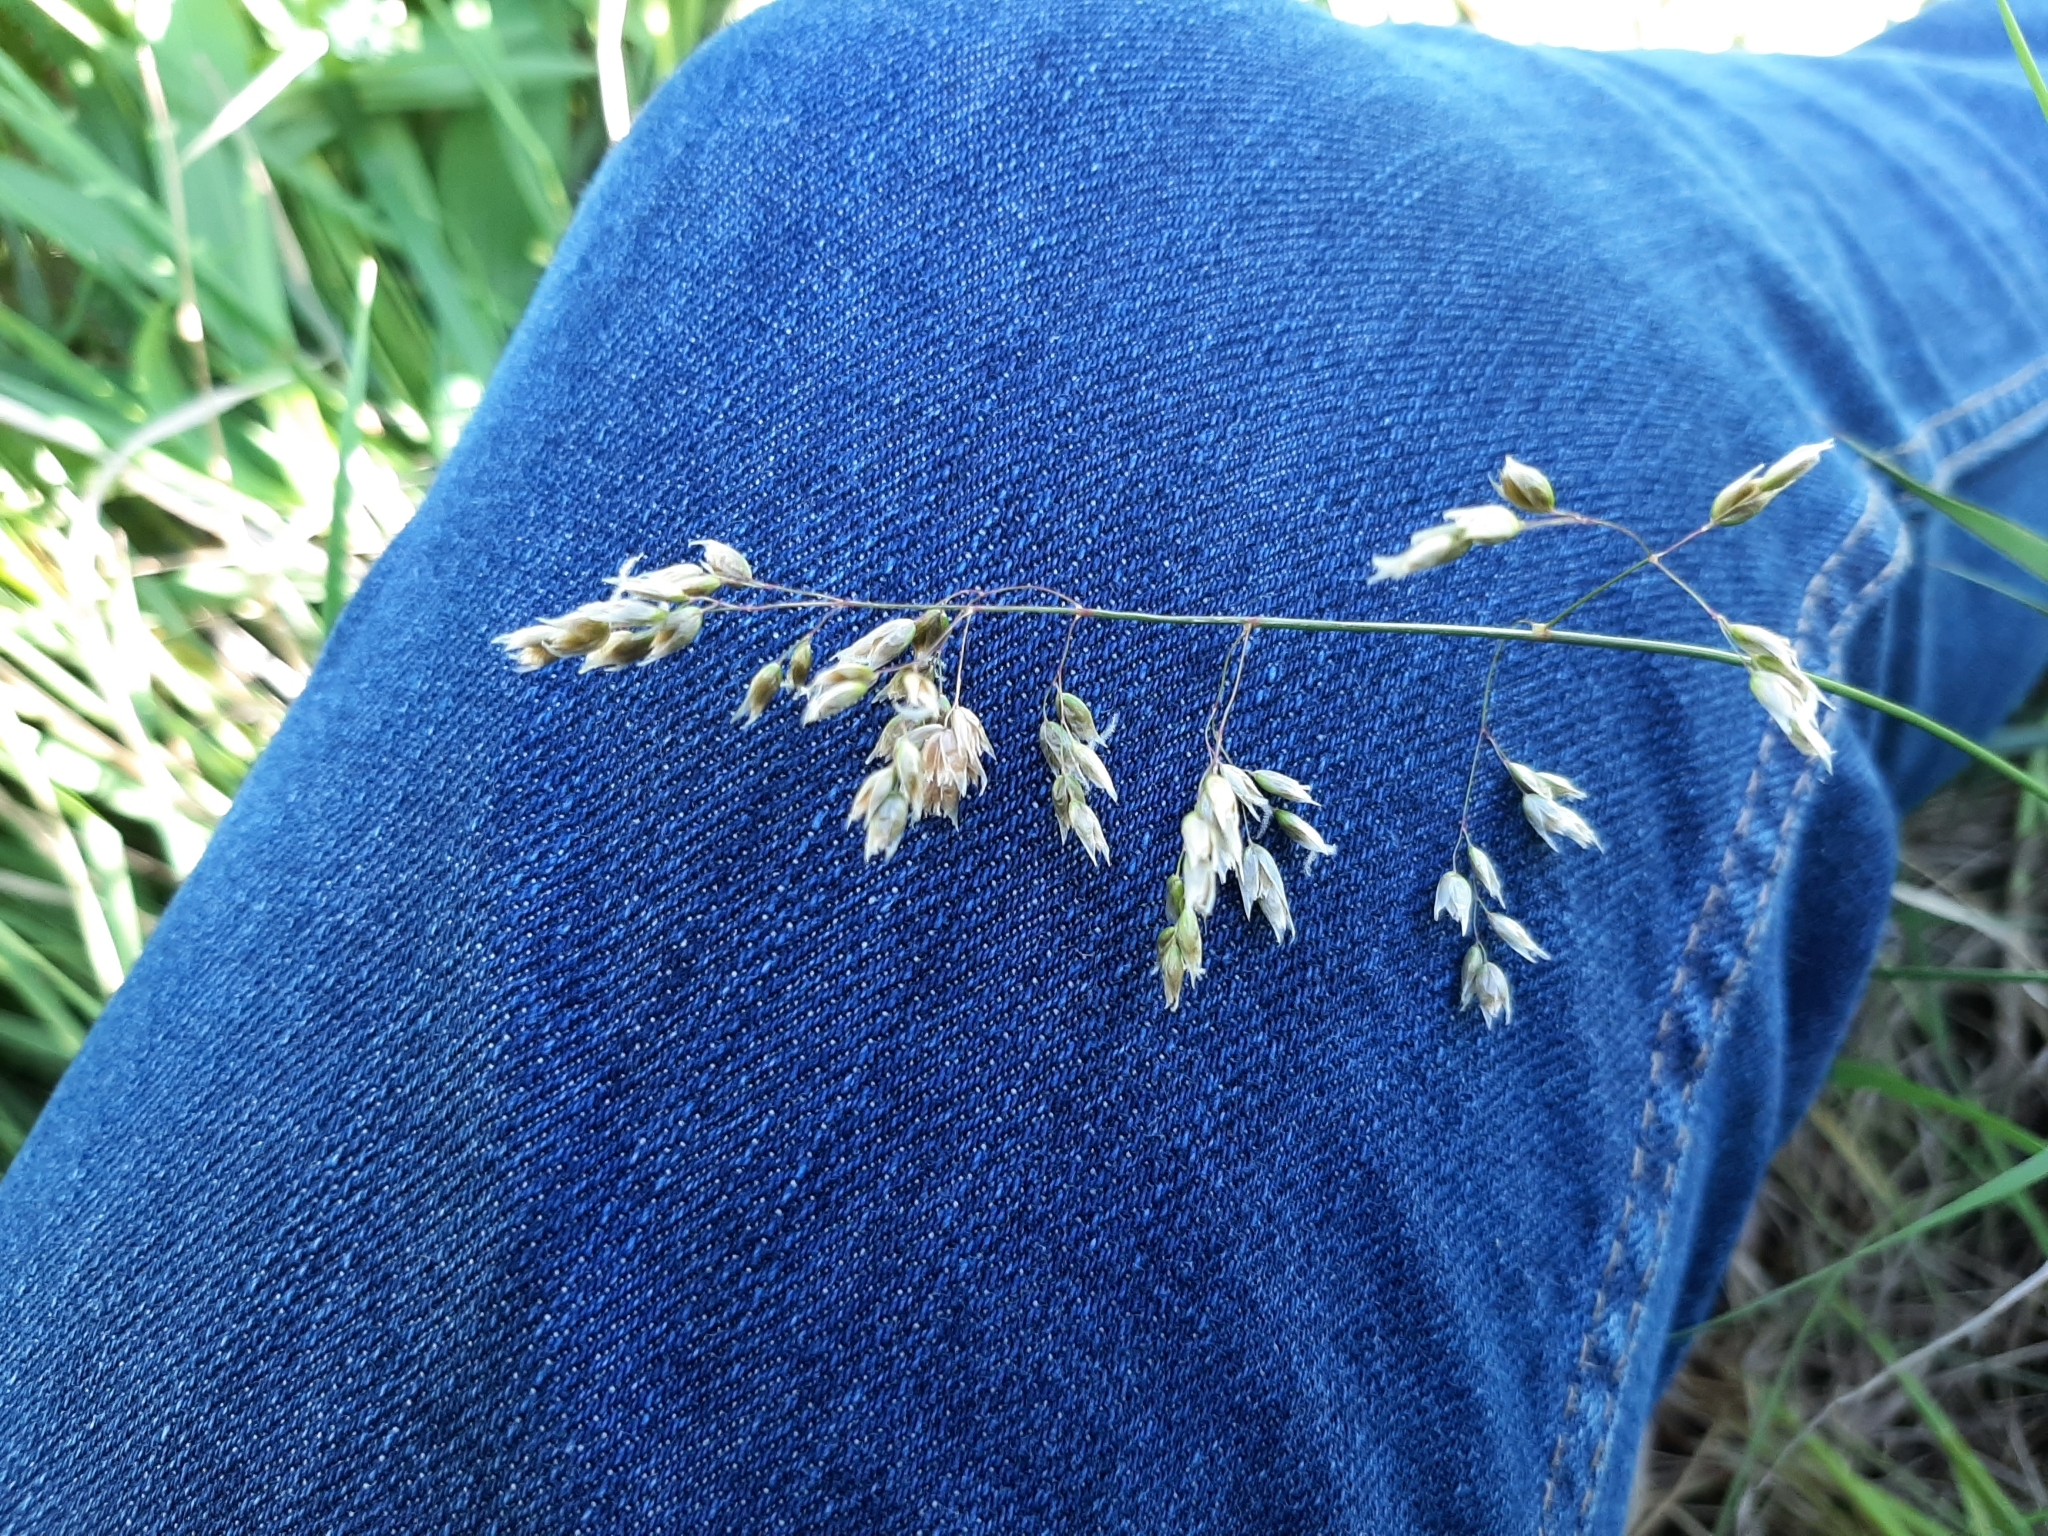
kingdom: Plantae
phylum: Tracheophyta
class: Liliopsida
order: Poales
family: Poaceae
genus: Anthoxanthum
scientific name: Anthoxanthum nitens
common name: Holy grass
